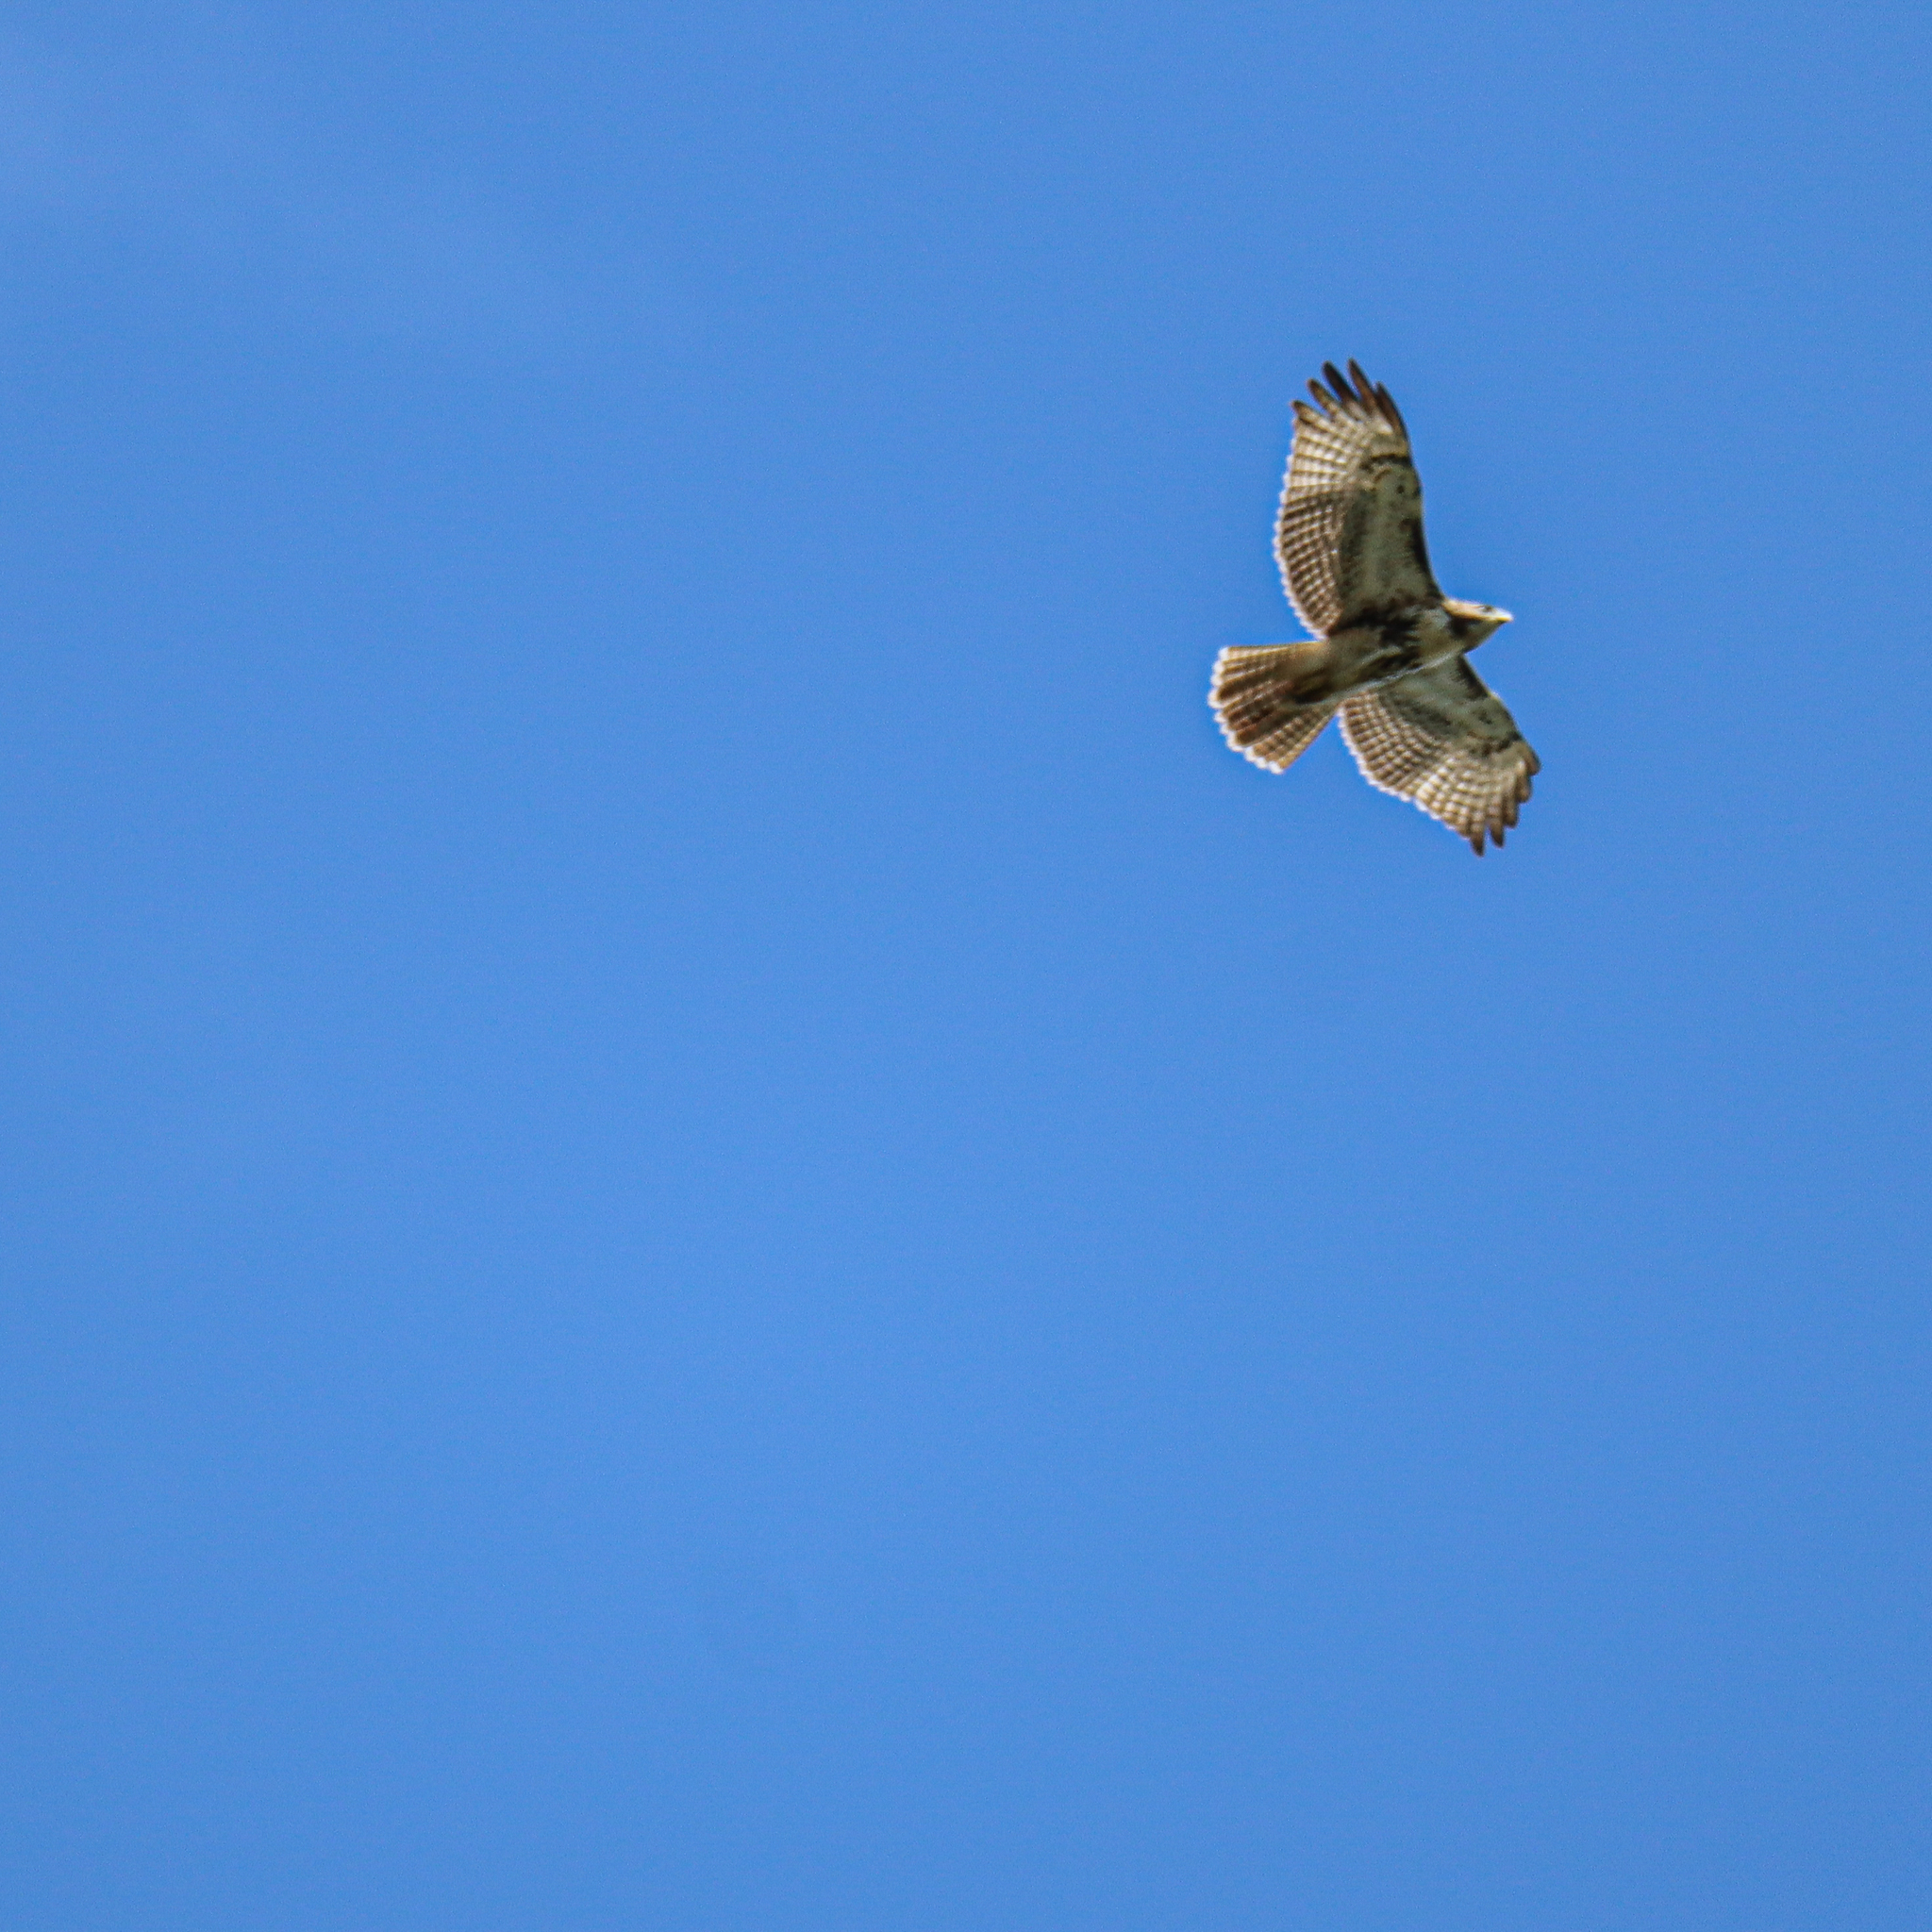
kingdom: Animalia
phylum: Chordata
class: Aves
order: Accipitriformes
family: Accipitridae
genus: Buteo
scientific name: Buteo jamaicensis
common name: Red-tailed hawk
